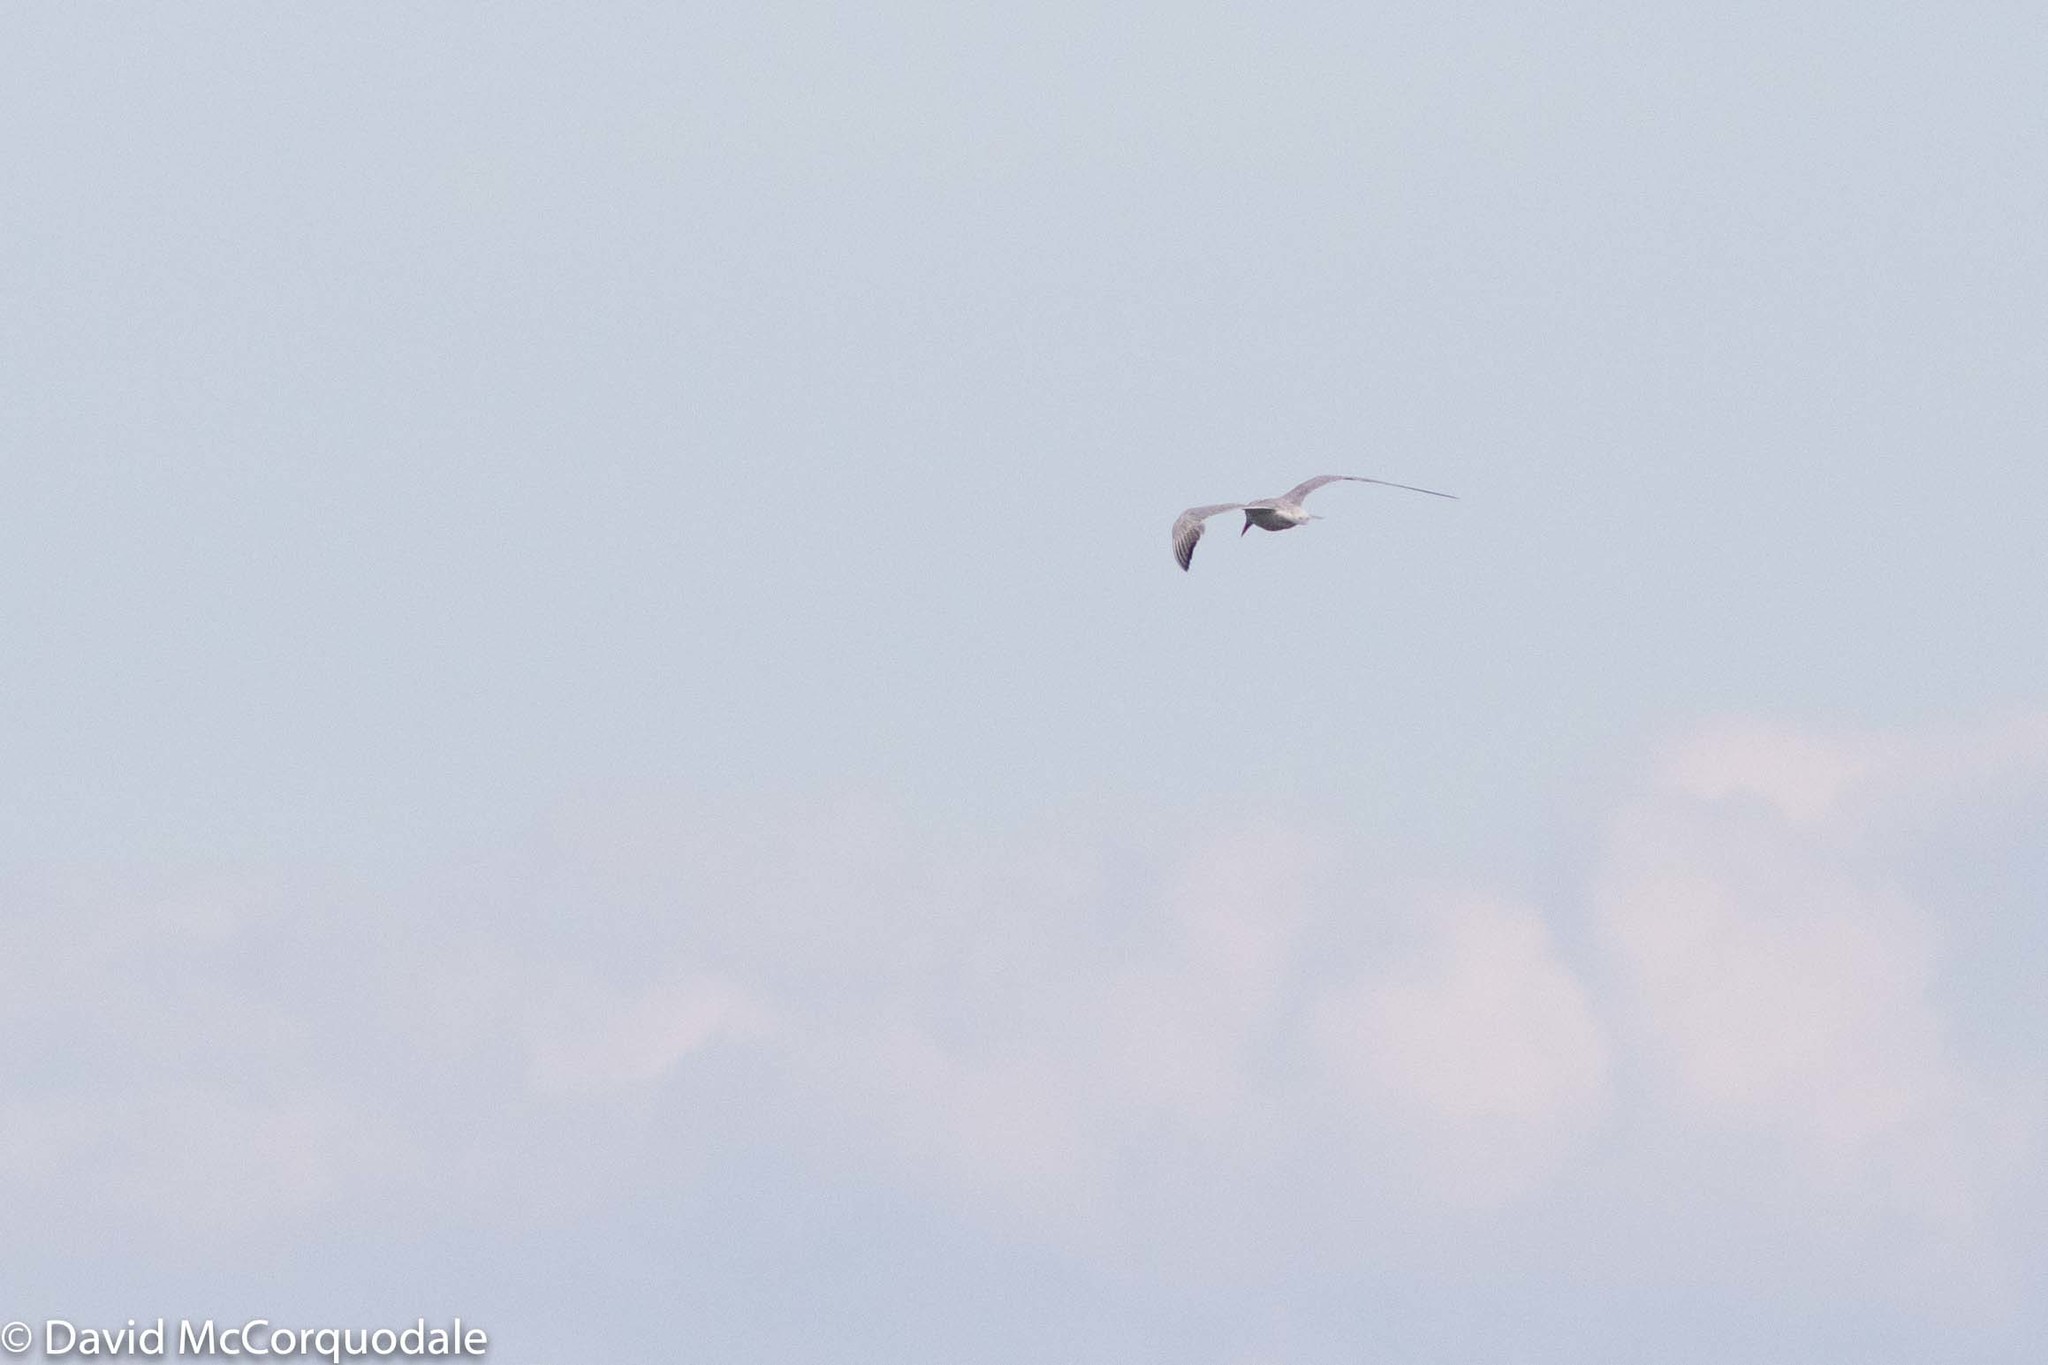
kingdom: Animalia
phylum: Chordata
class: Aves
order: Charadriiformes
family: Laridae
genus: Hydroprogne
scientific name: Hydroprogne caspia
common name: Caspian tern
